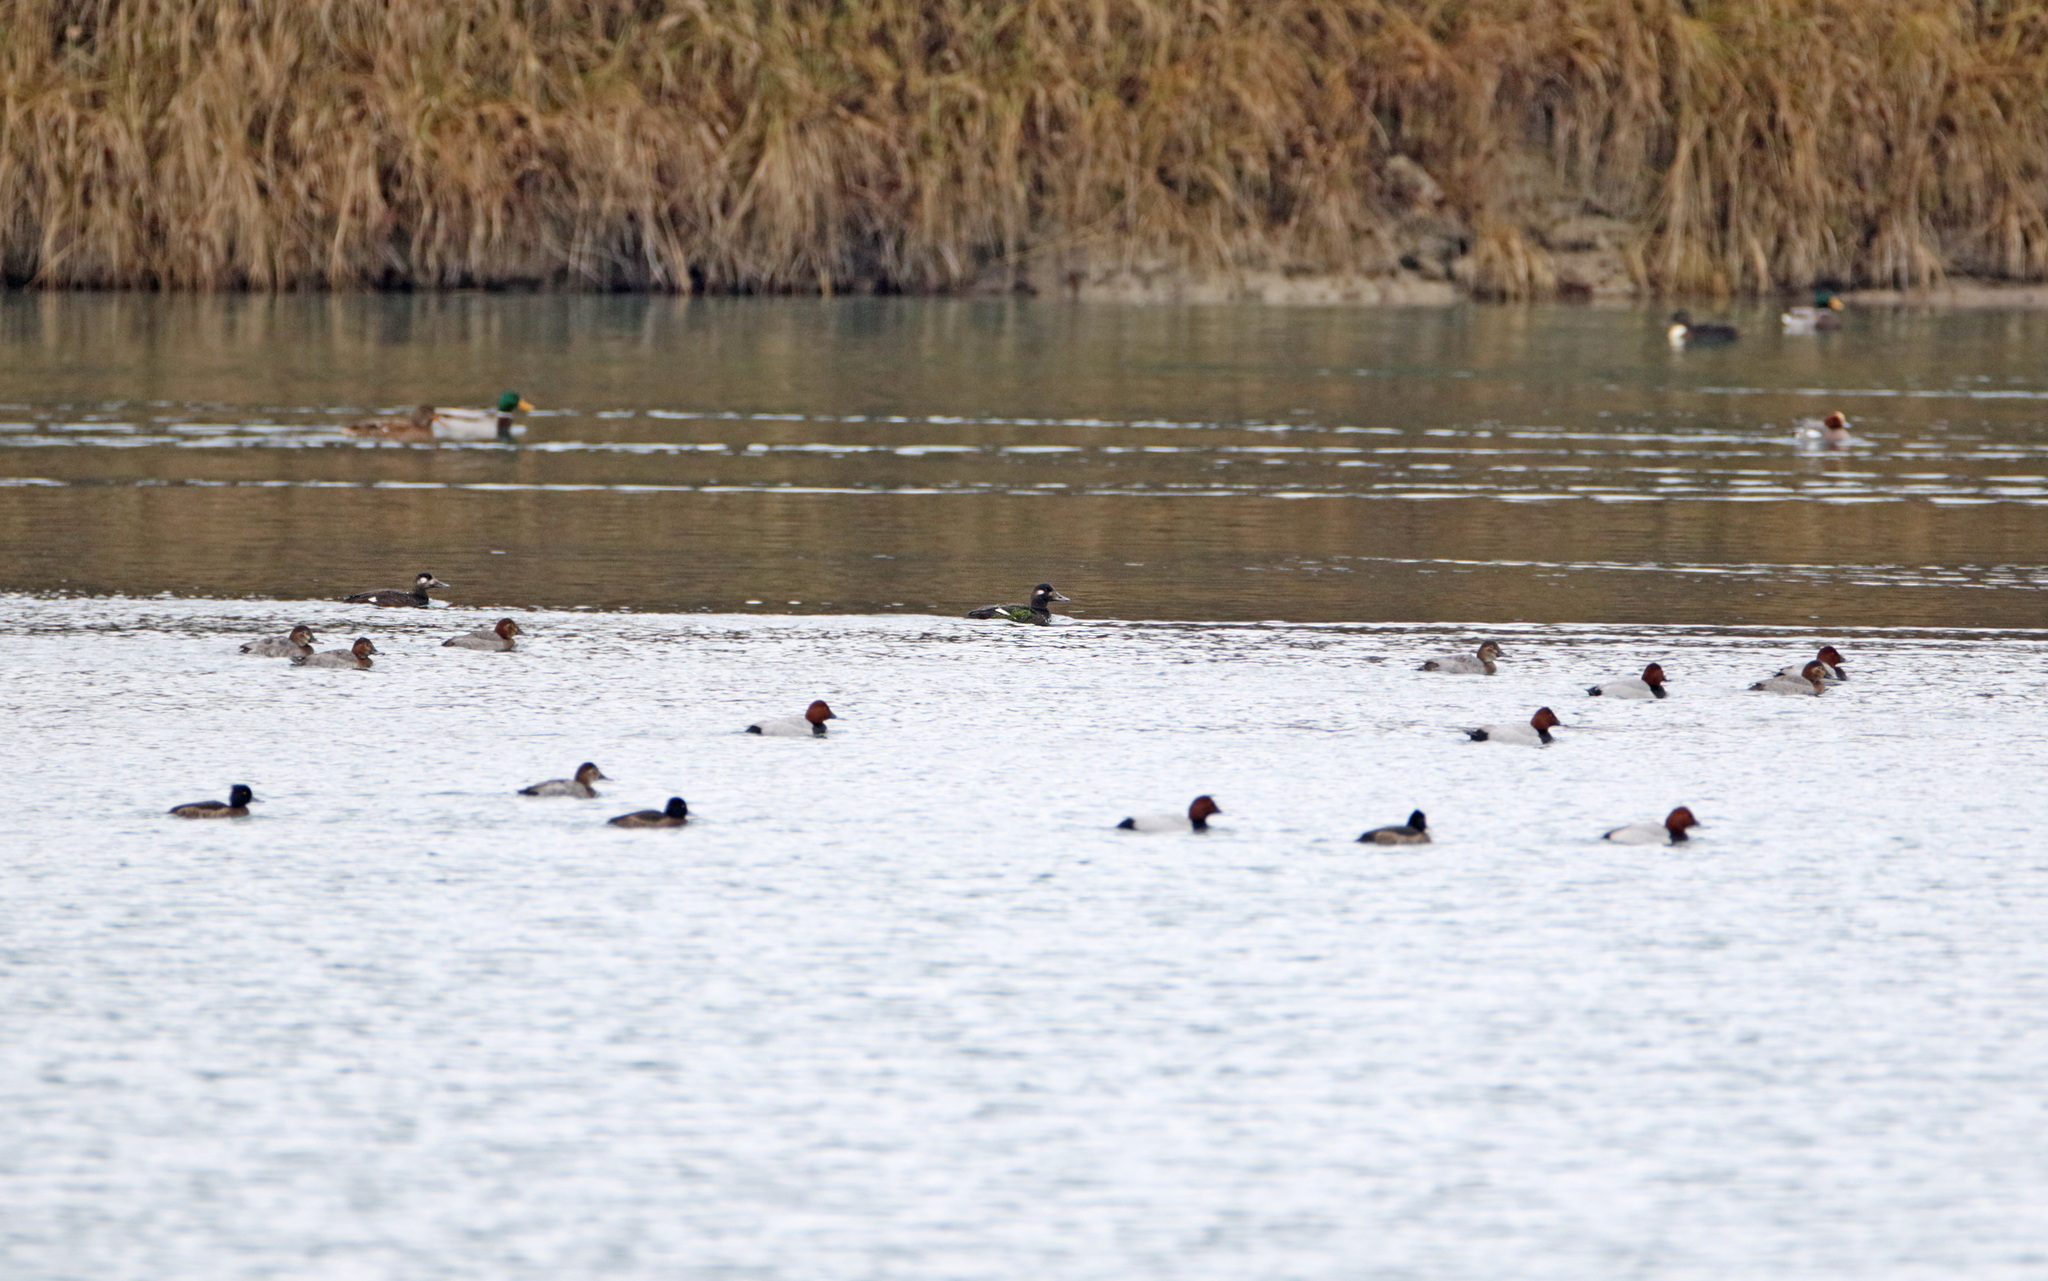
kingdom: Animalia
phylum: Chordata
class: Aves
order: Anseriformes
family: Anatidae
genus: Melanitta
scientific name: Melanitta fusca
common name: Velvet scoter
